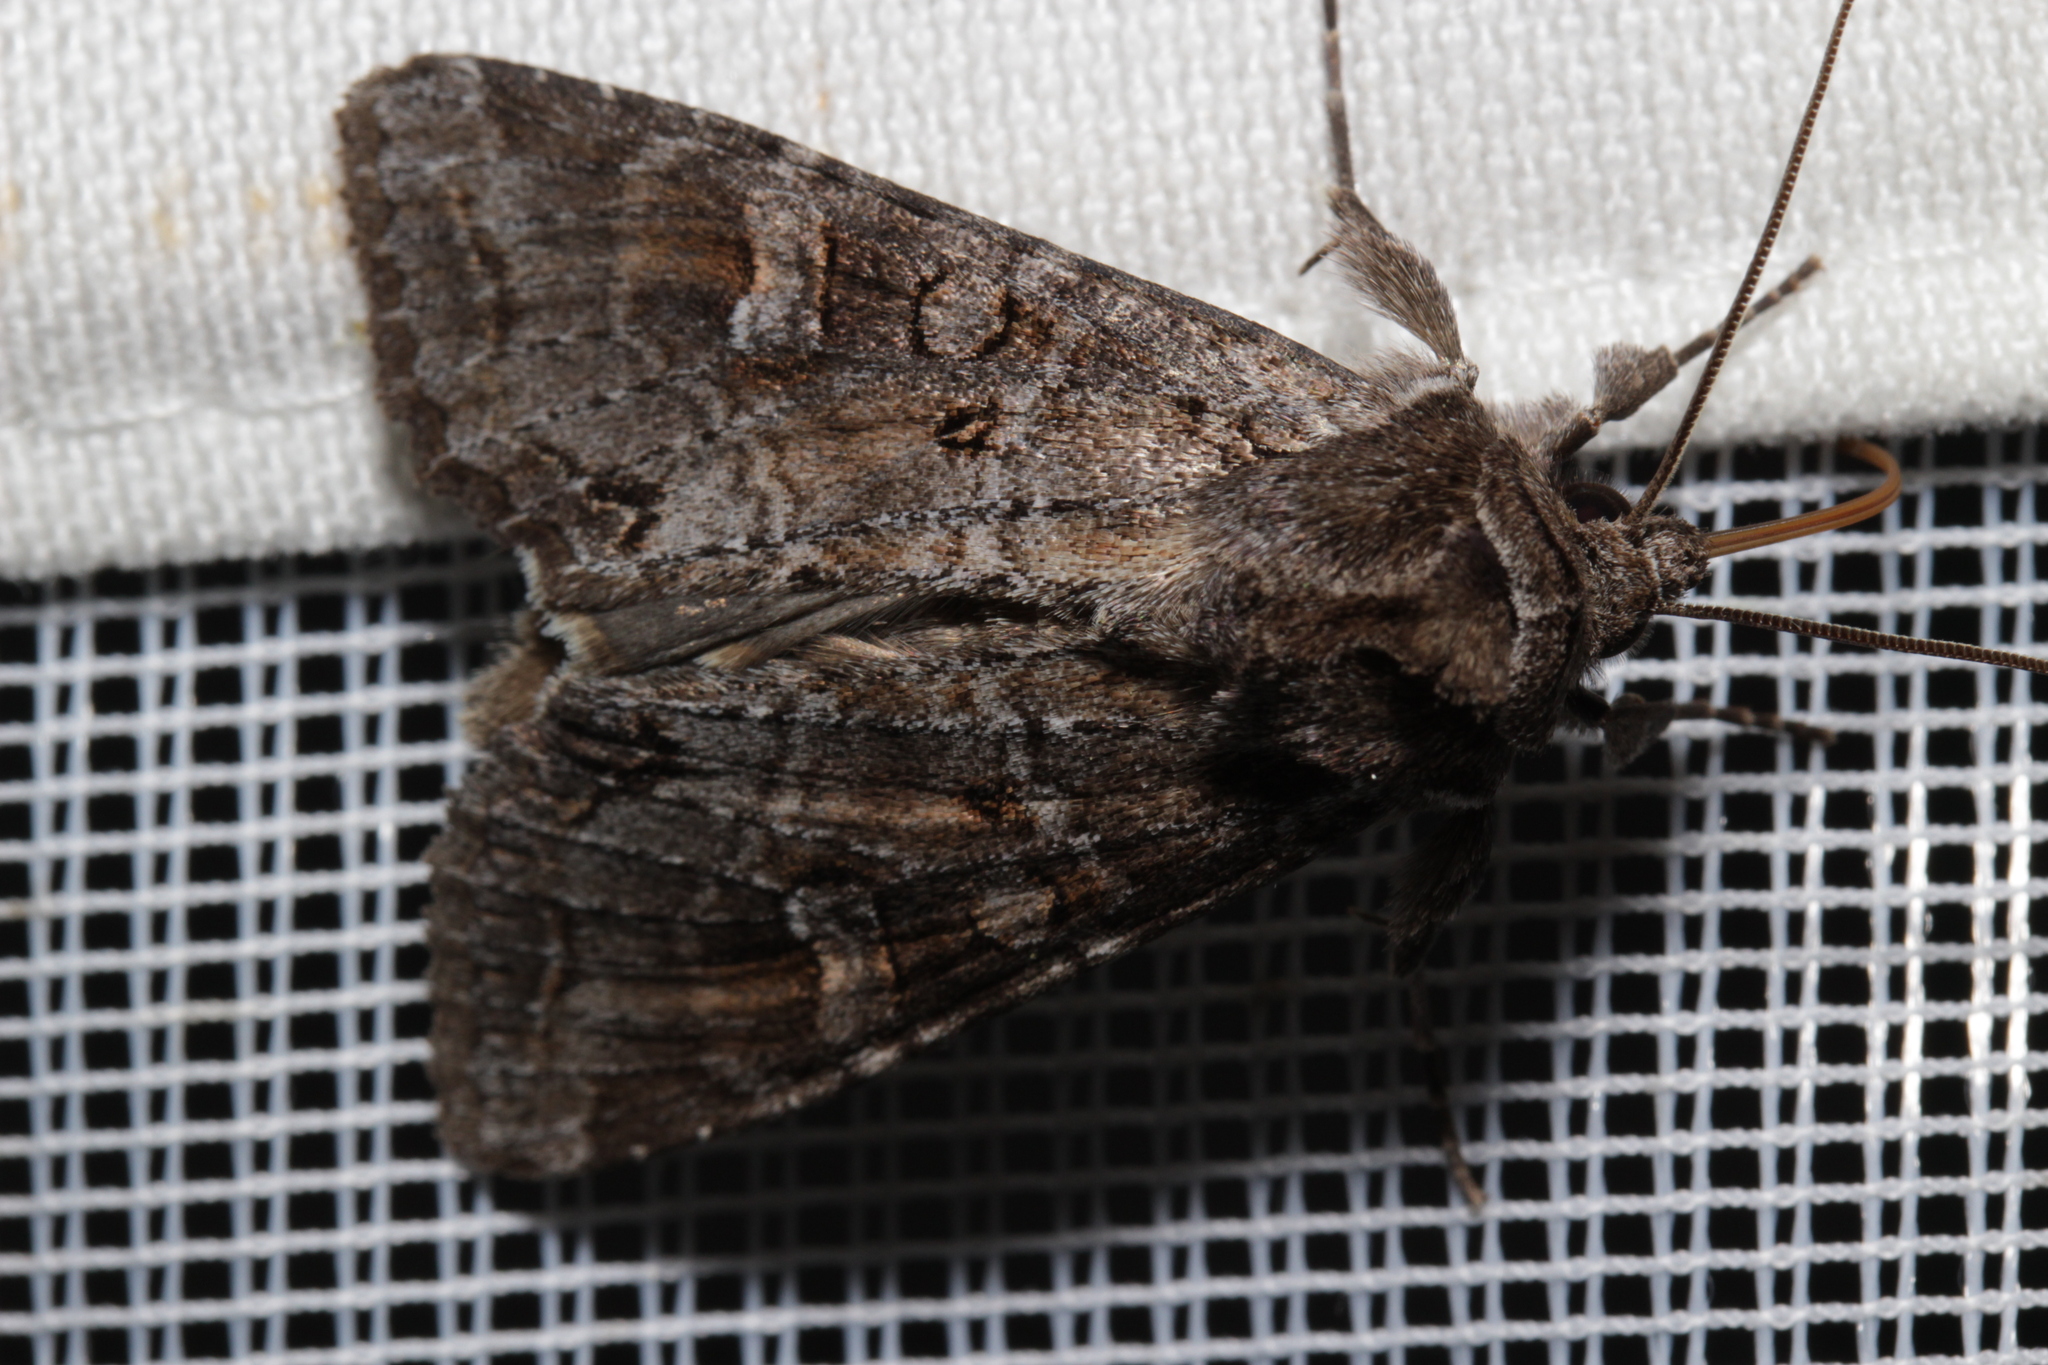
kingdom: Animalia
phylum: Arthropoda
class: Insecta
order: Lepidoptera
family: Noctuidae
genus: Polia
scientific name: Polia bombycina
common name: Pale shining brown
